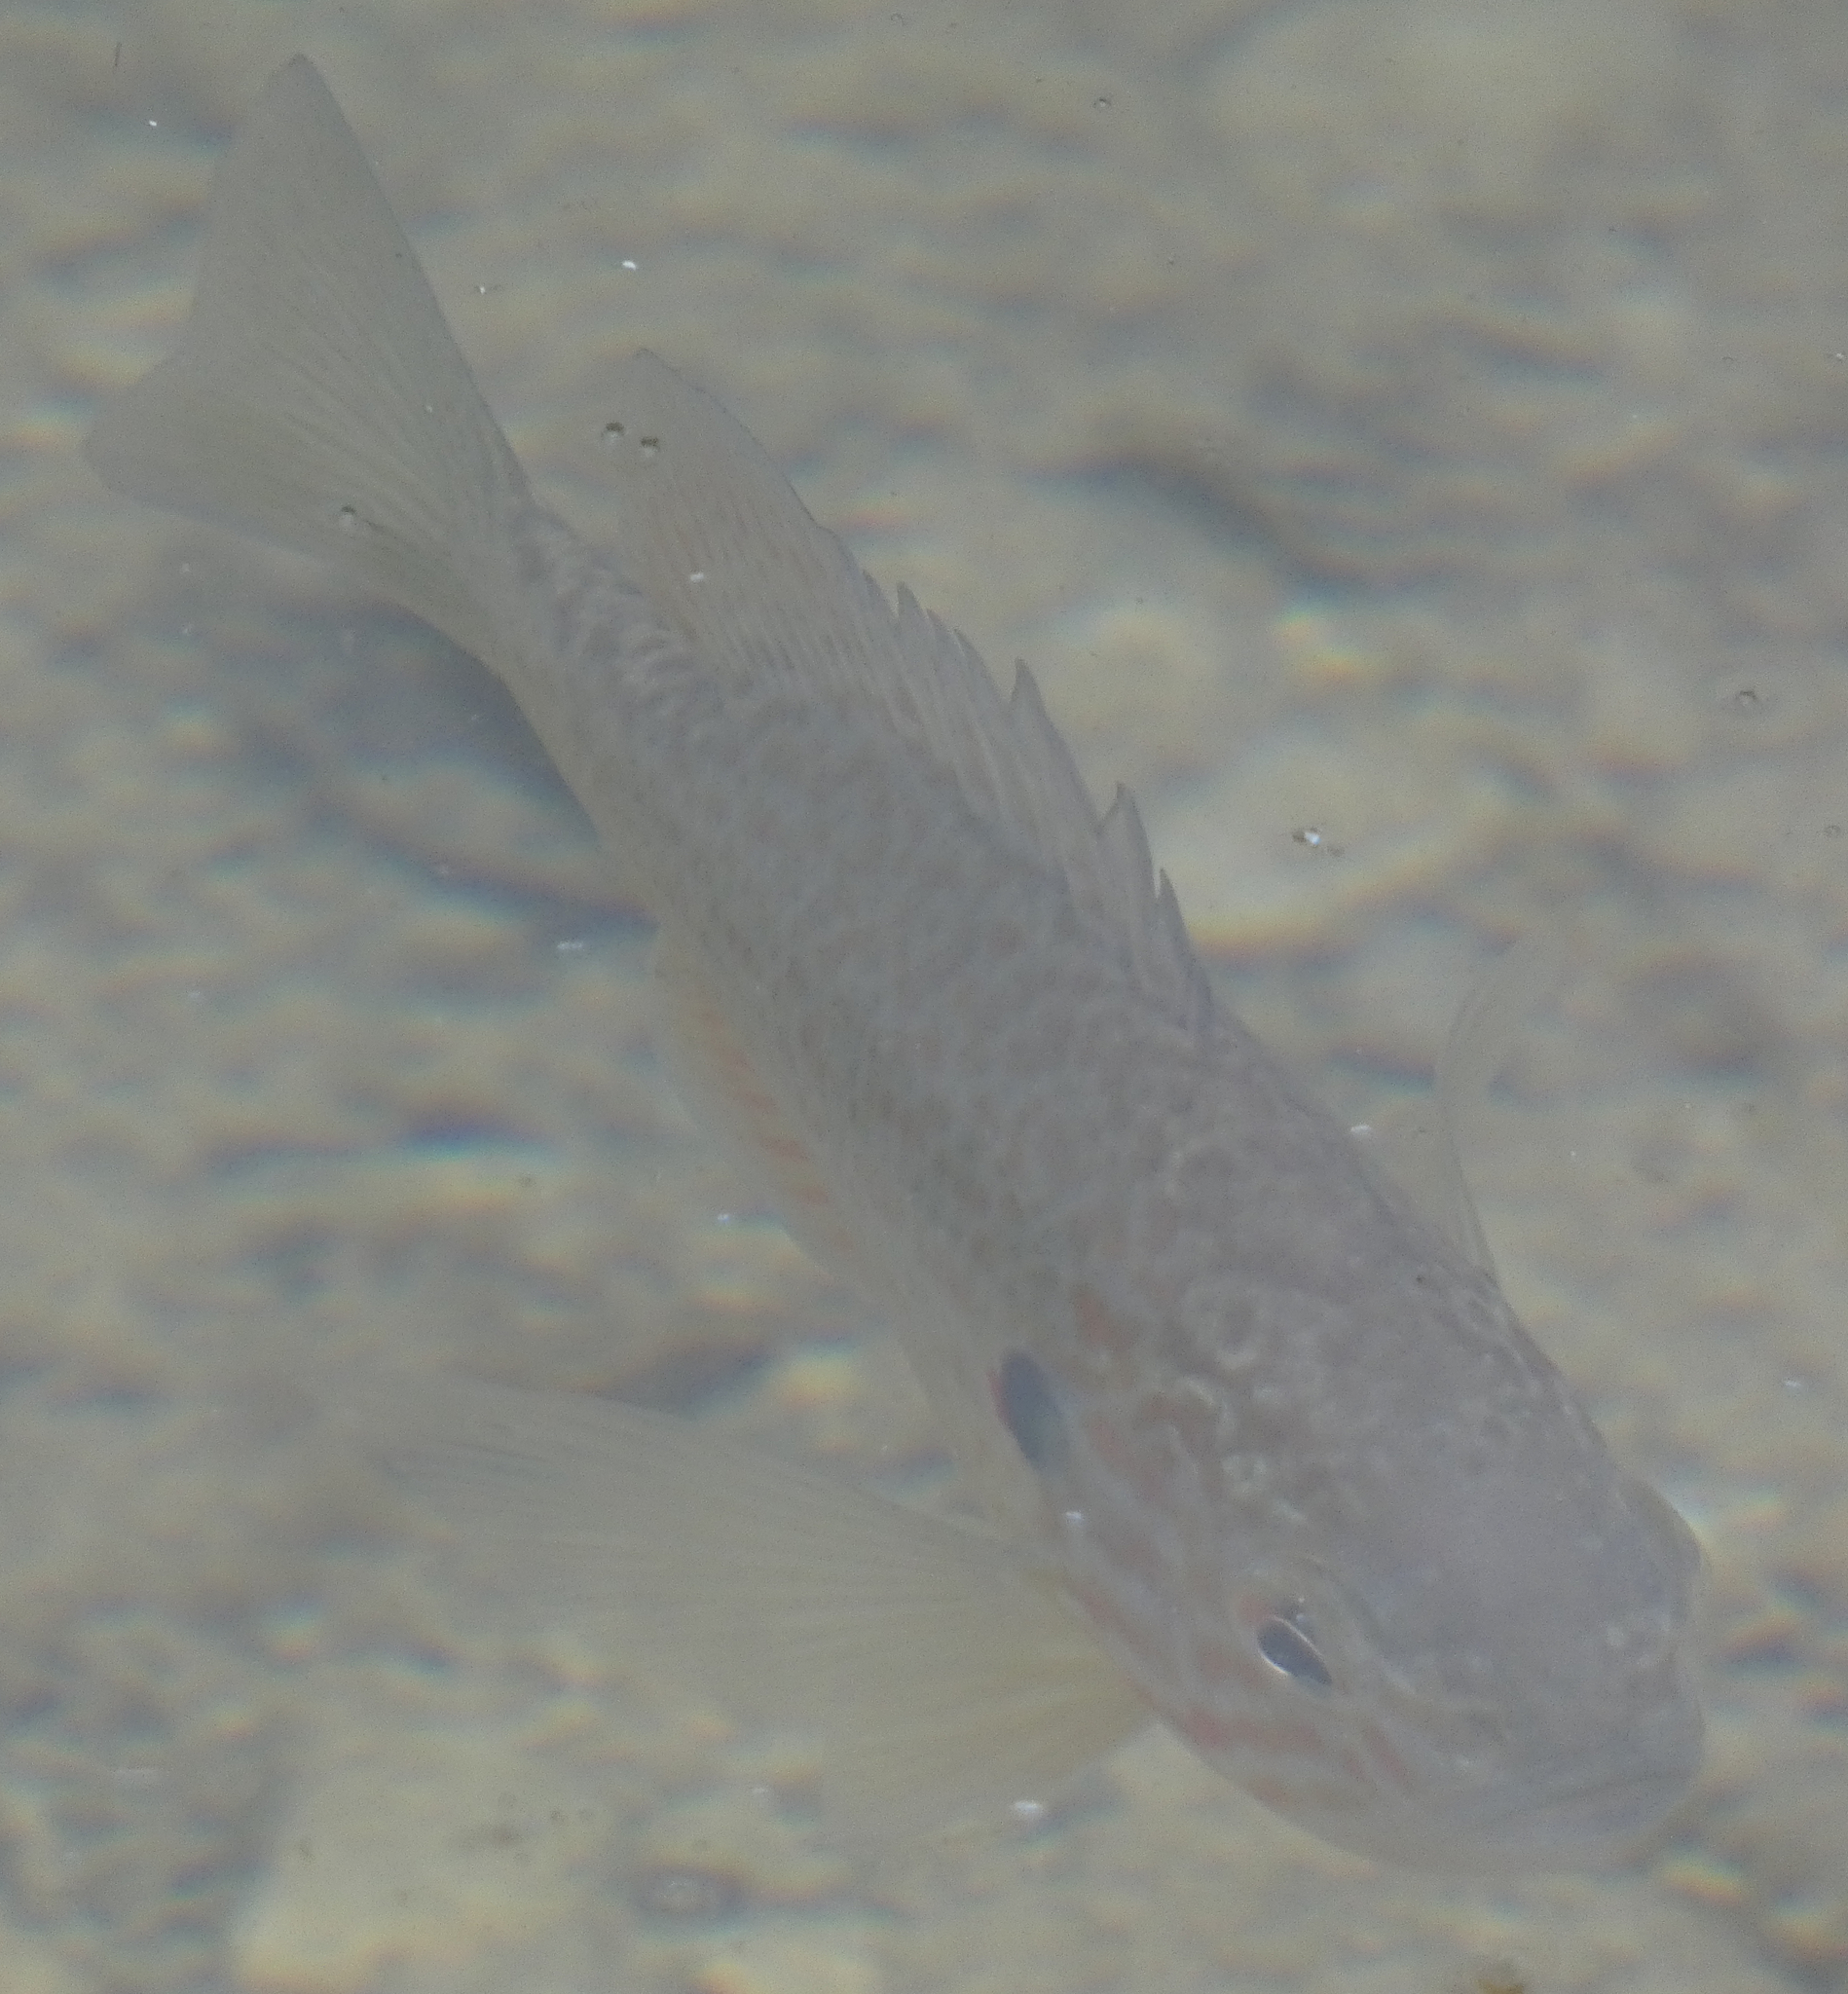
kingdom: Animalia
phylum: Chordata
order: Perciformes
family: Centrarchidae
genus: Lepomis
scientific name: Lepomis gibbosus
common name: Pumpkinseed
